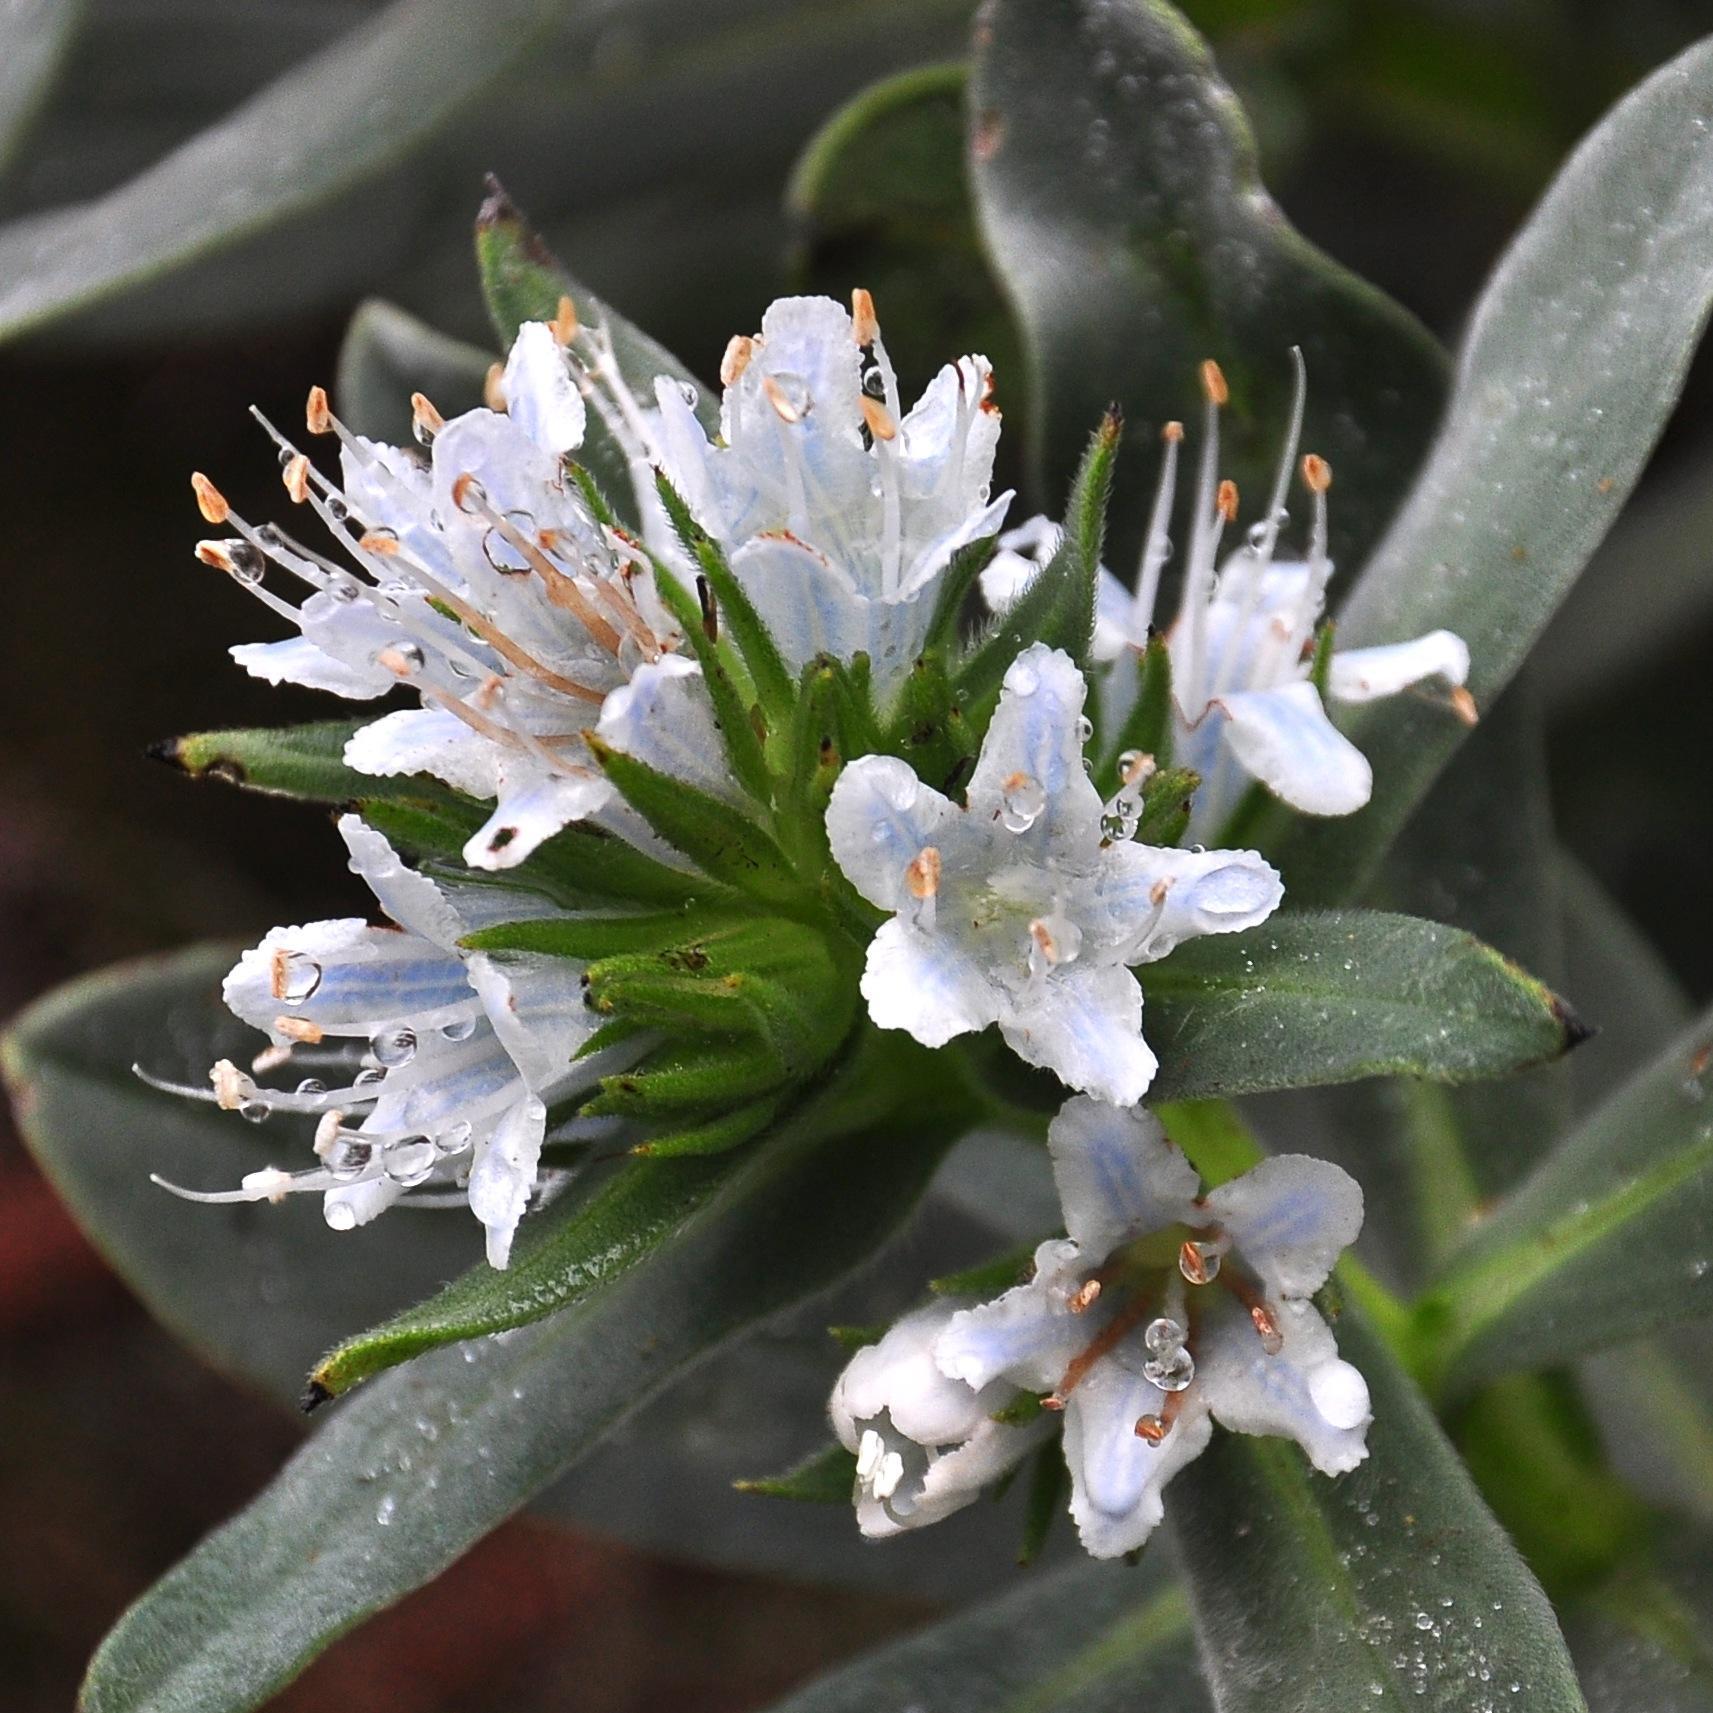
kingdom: Plantae
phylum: Tracheophyta
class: Magnoliopsida
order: Boraginales
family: Boraginaceae
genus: Lobostemon
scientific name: Lobostemon montanus
